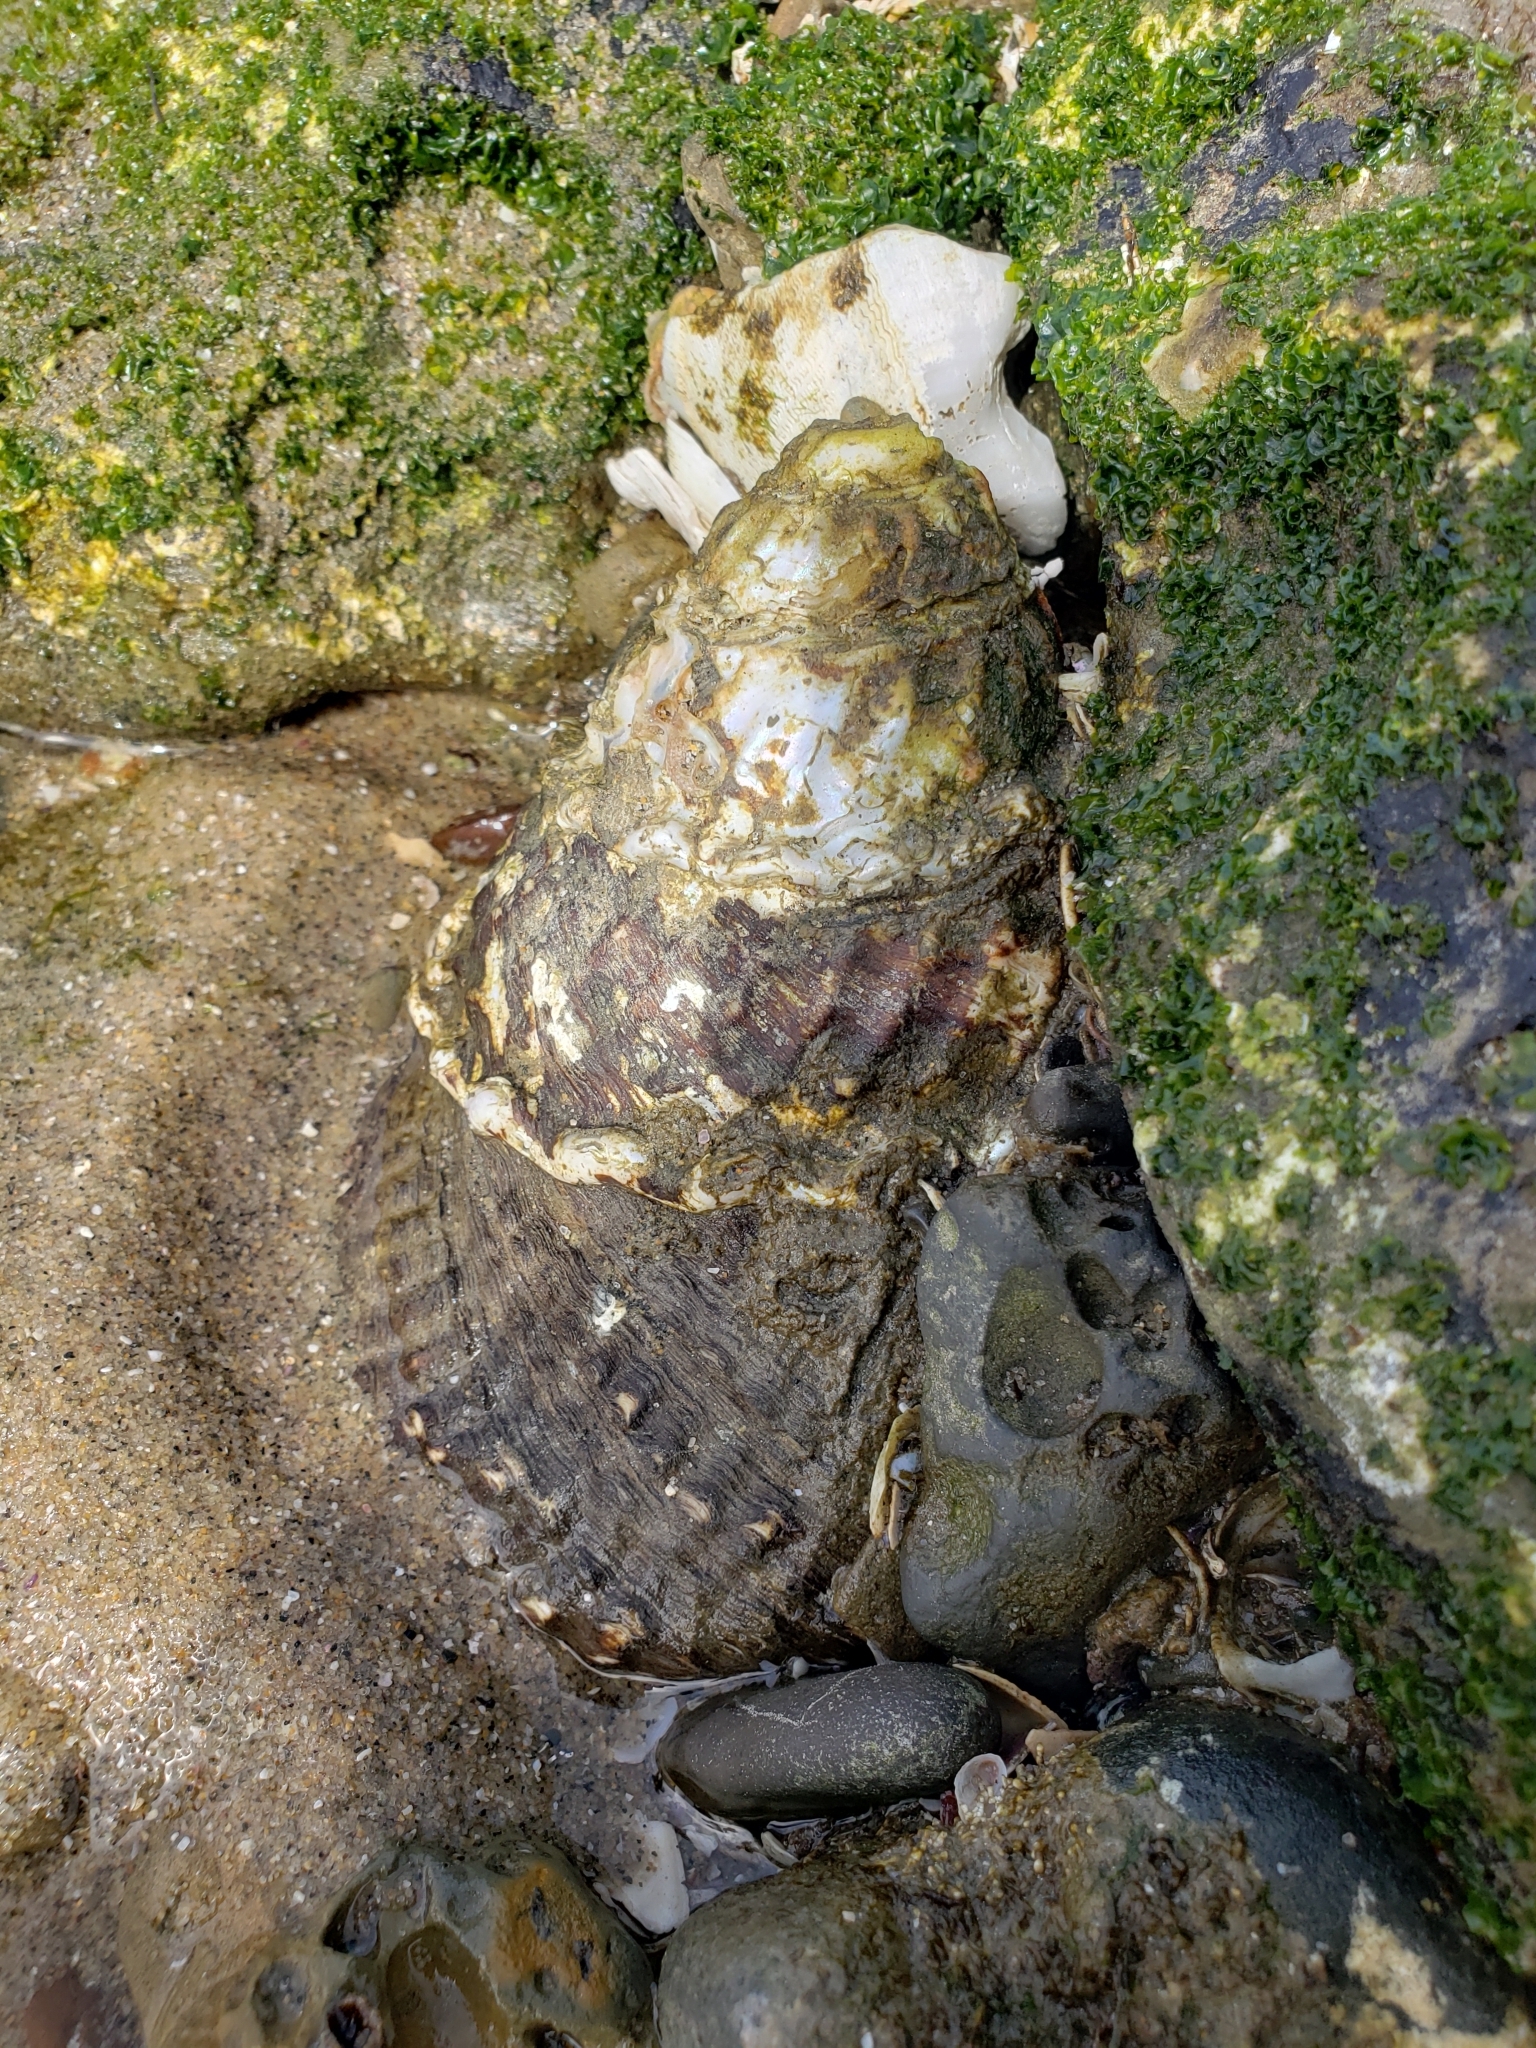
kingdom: Animalia
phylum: Mollusca
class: Gastropoda
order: Trochida
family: Turbinidae
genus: Megastraea
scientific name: Megastraea undosa
